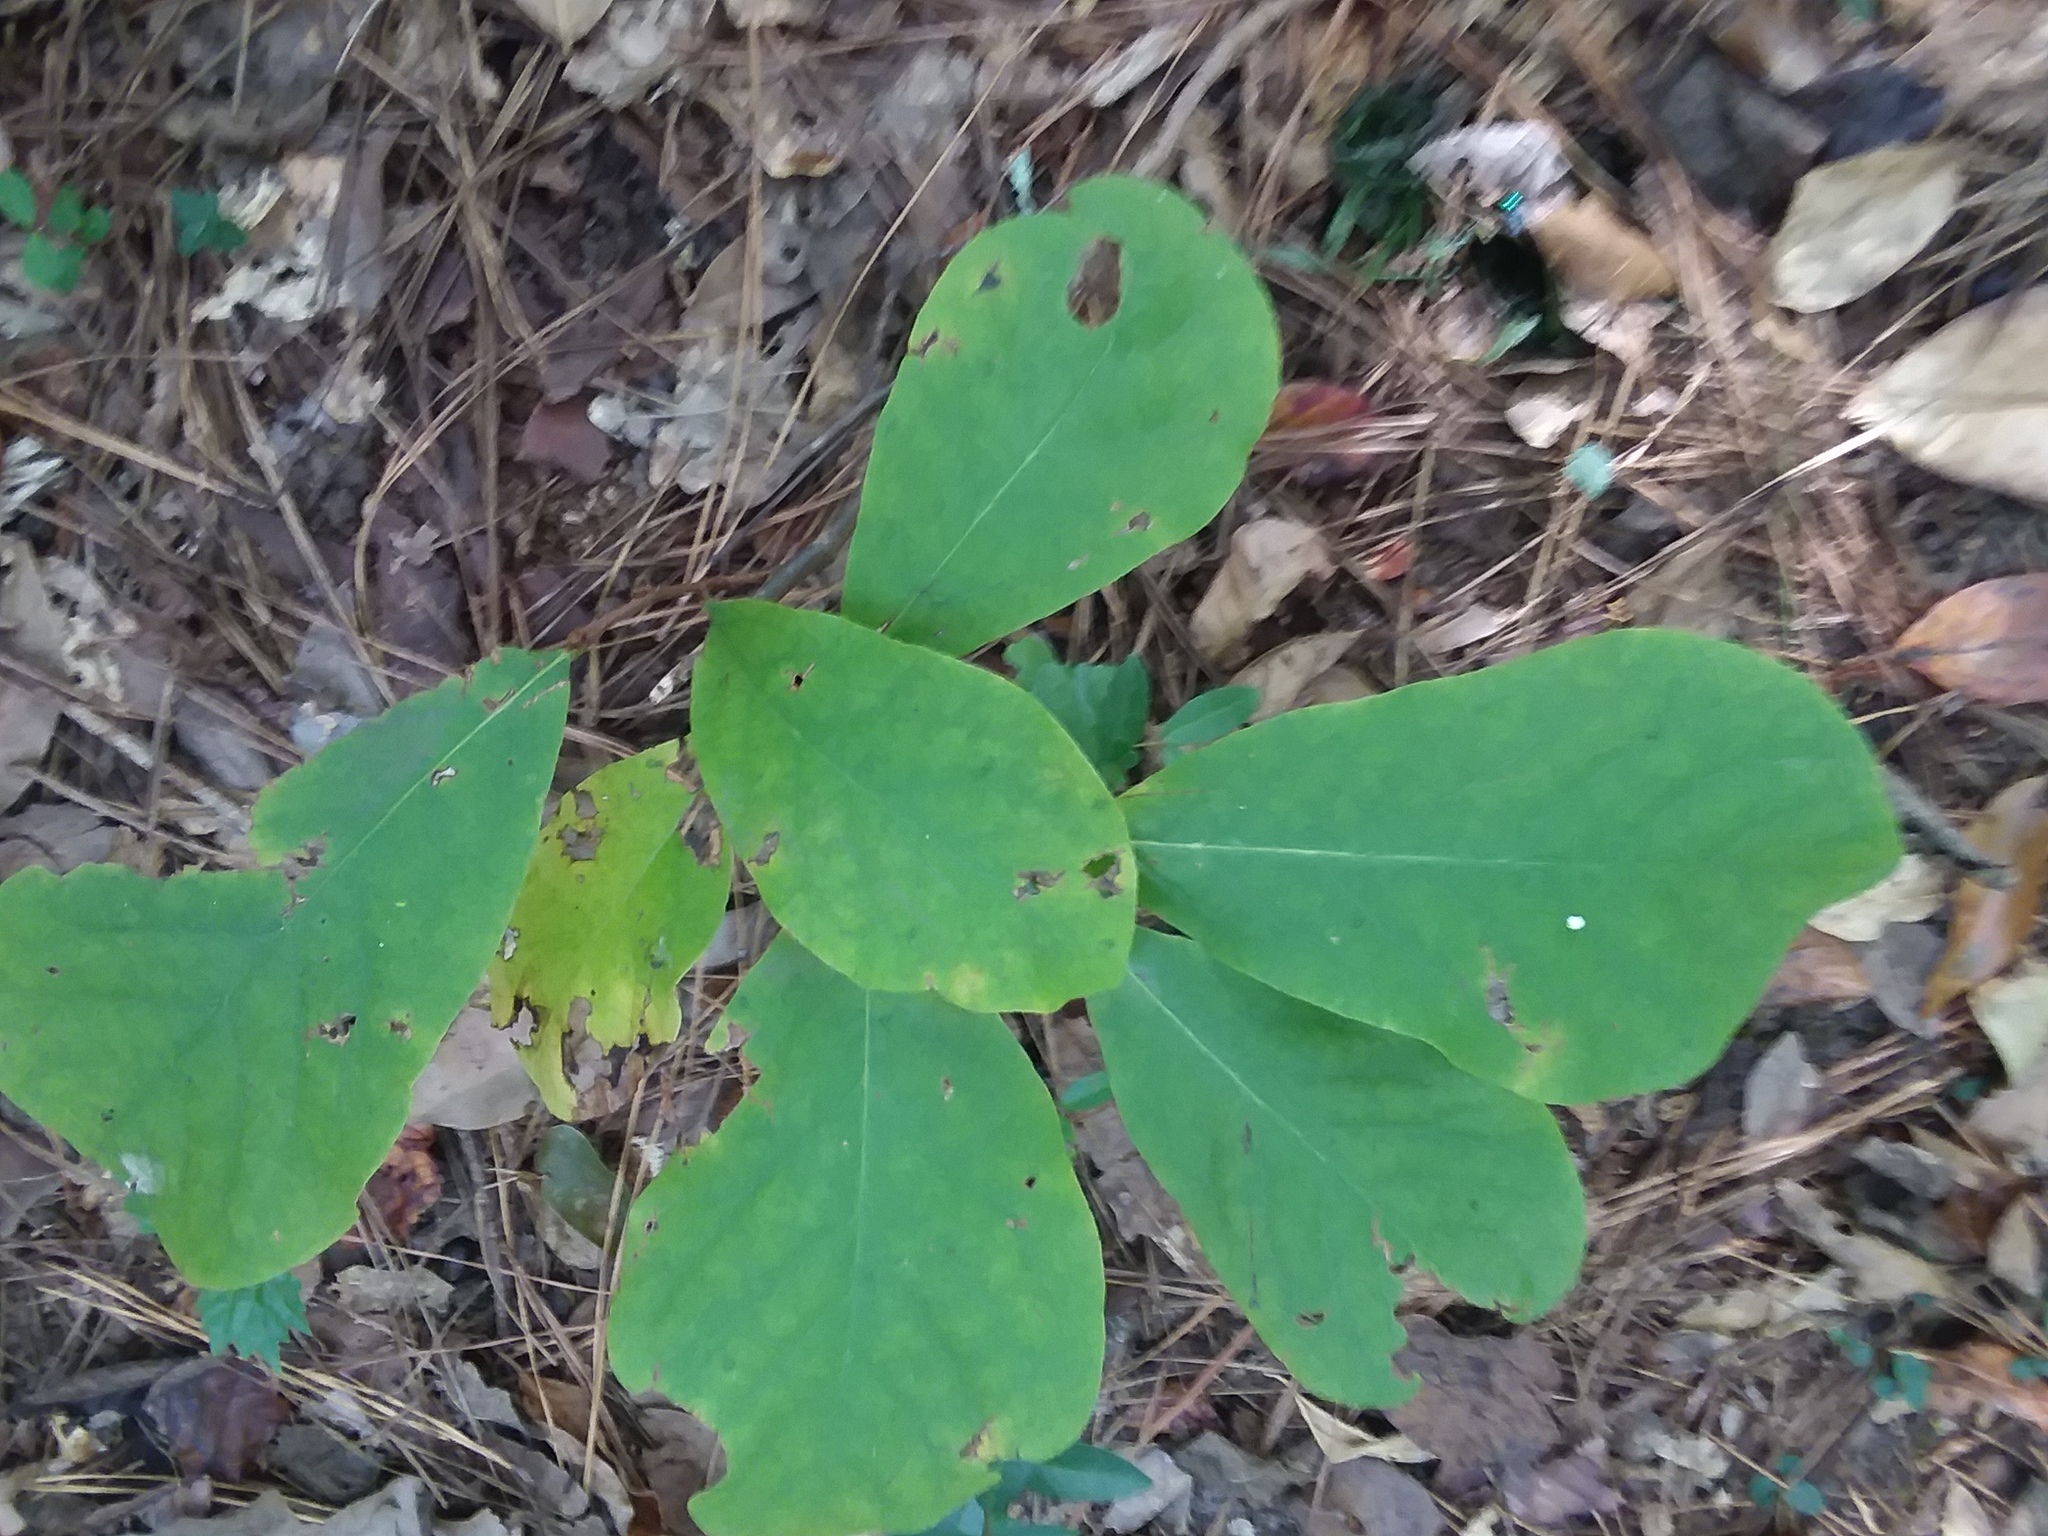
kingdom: Plantae
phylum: Tracheophyta
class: Magnoliopsida
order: Magnoliales
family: Annonaceae
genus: Asimina
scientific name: Asimina parviflora
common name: Dwarf pawpaw
